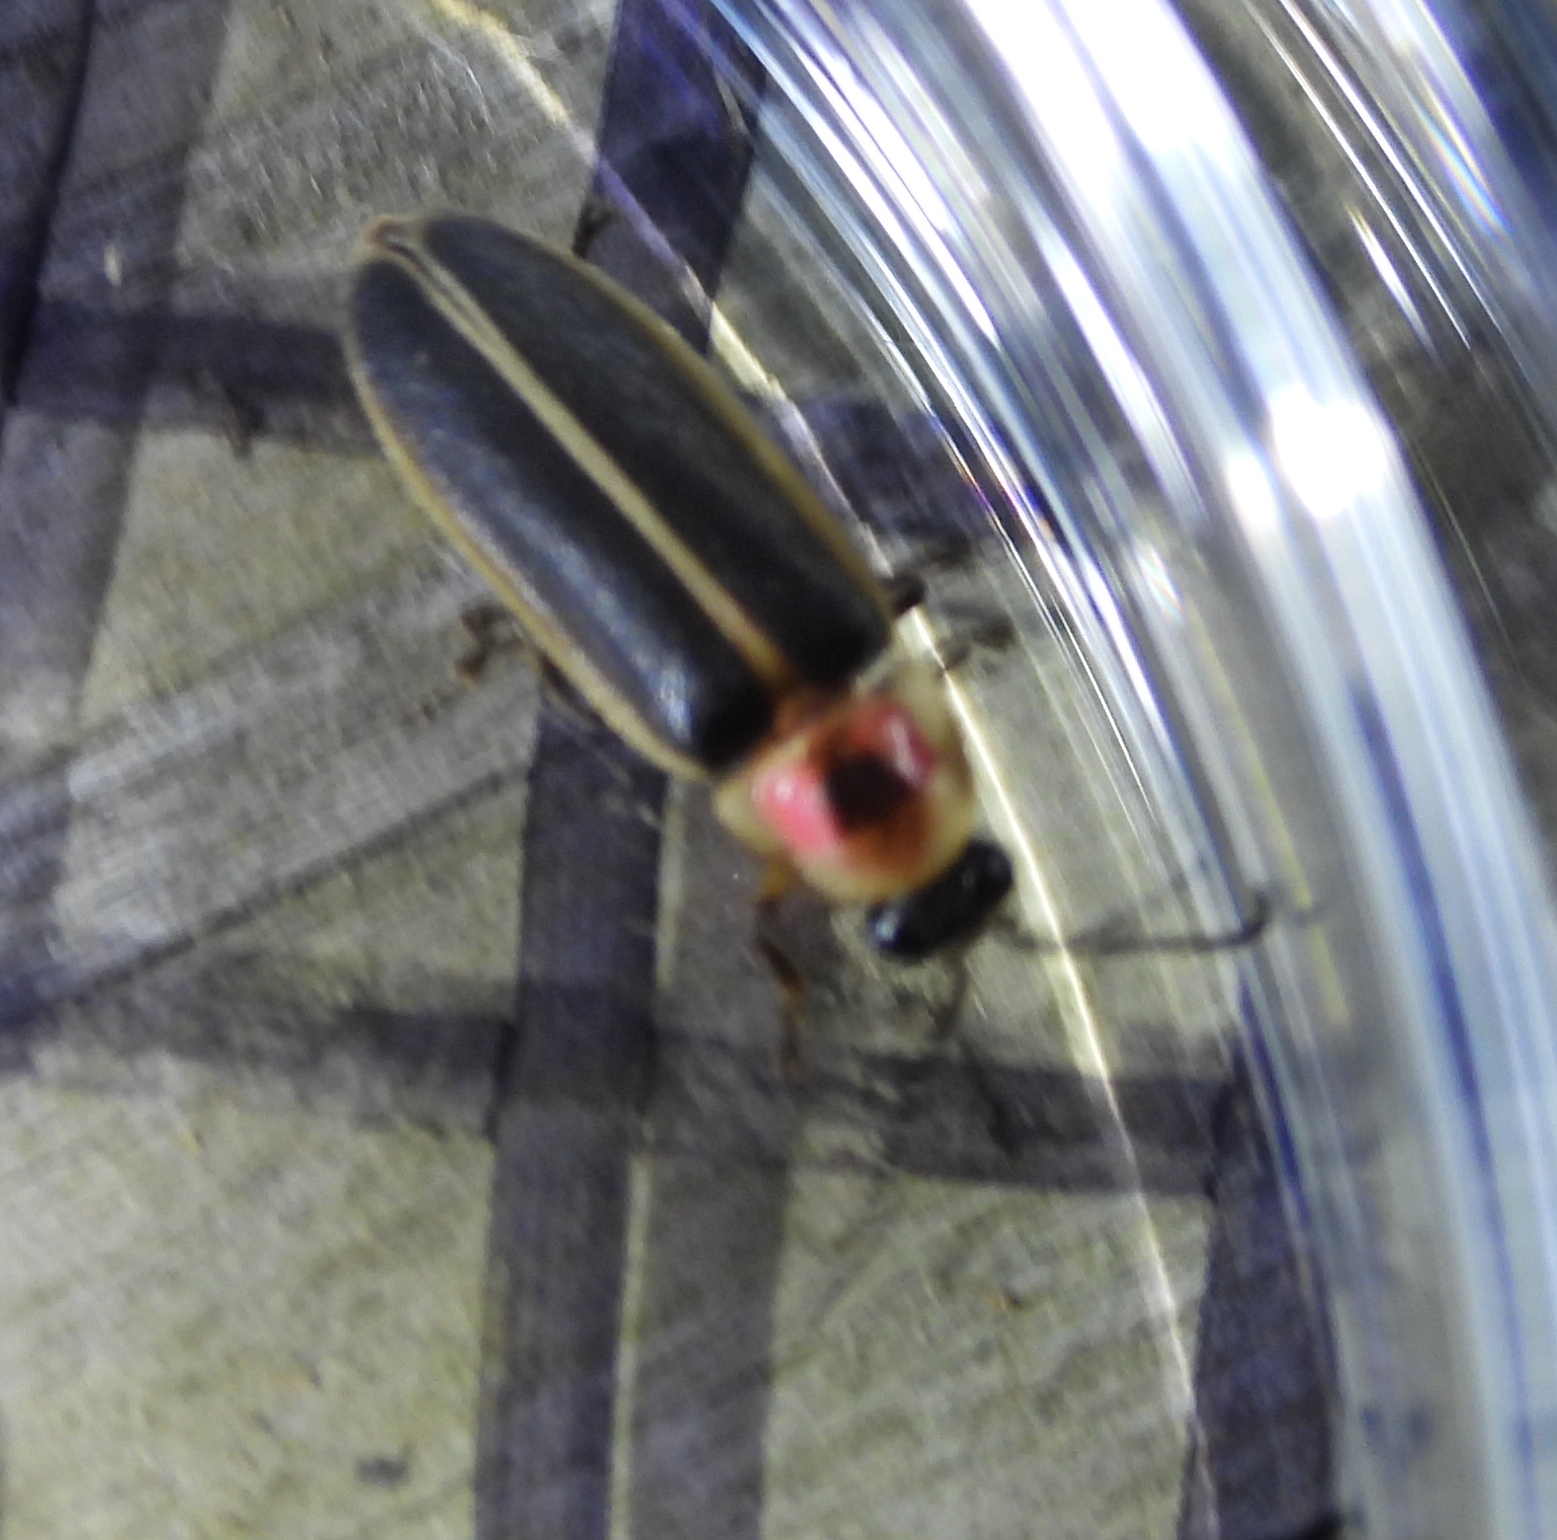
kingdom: Animalia
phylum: Arthropoda
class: Insecta
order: Coleoptera
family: Lampyridae
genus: Photinus
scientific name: Photinus pyralis
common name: Big dipper firefly
